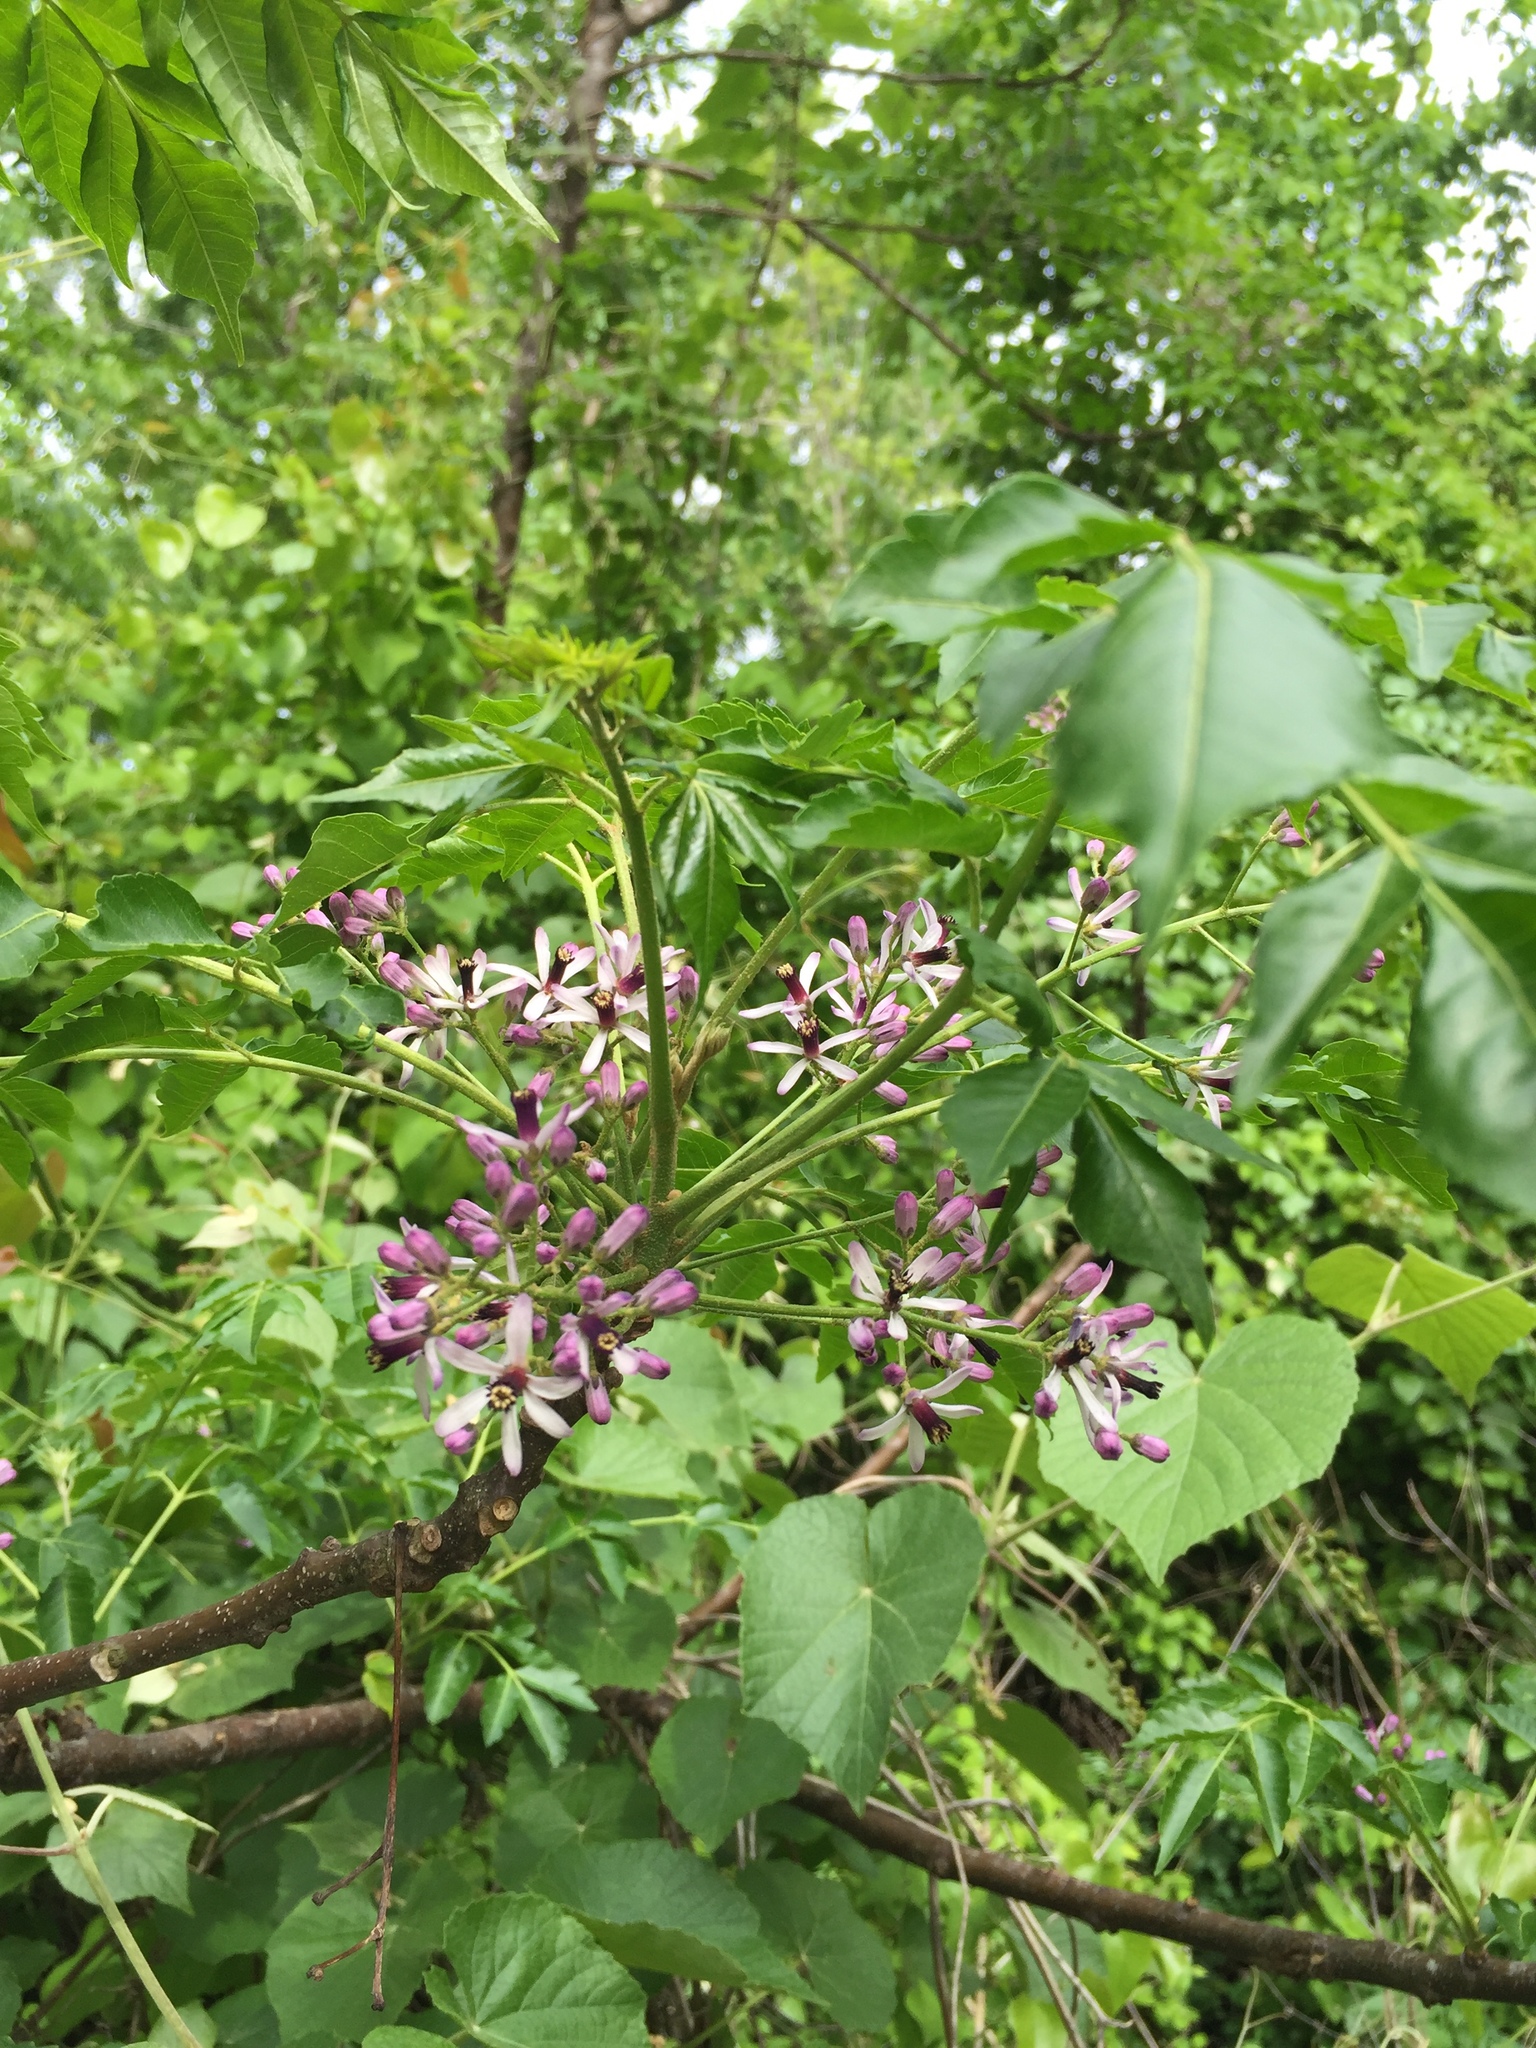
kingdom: Plantae
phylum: Tracheophyta
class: Magnoliopsida
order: Sapindales
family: Meliaceae
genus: Melia
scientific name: Melia azedarach
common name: Chinaberrytree
